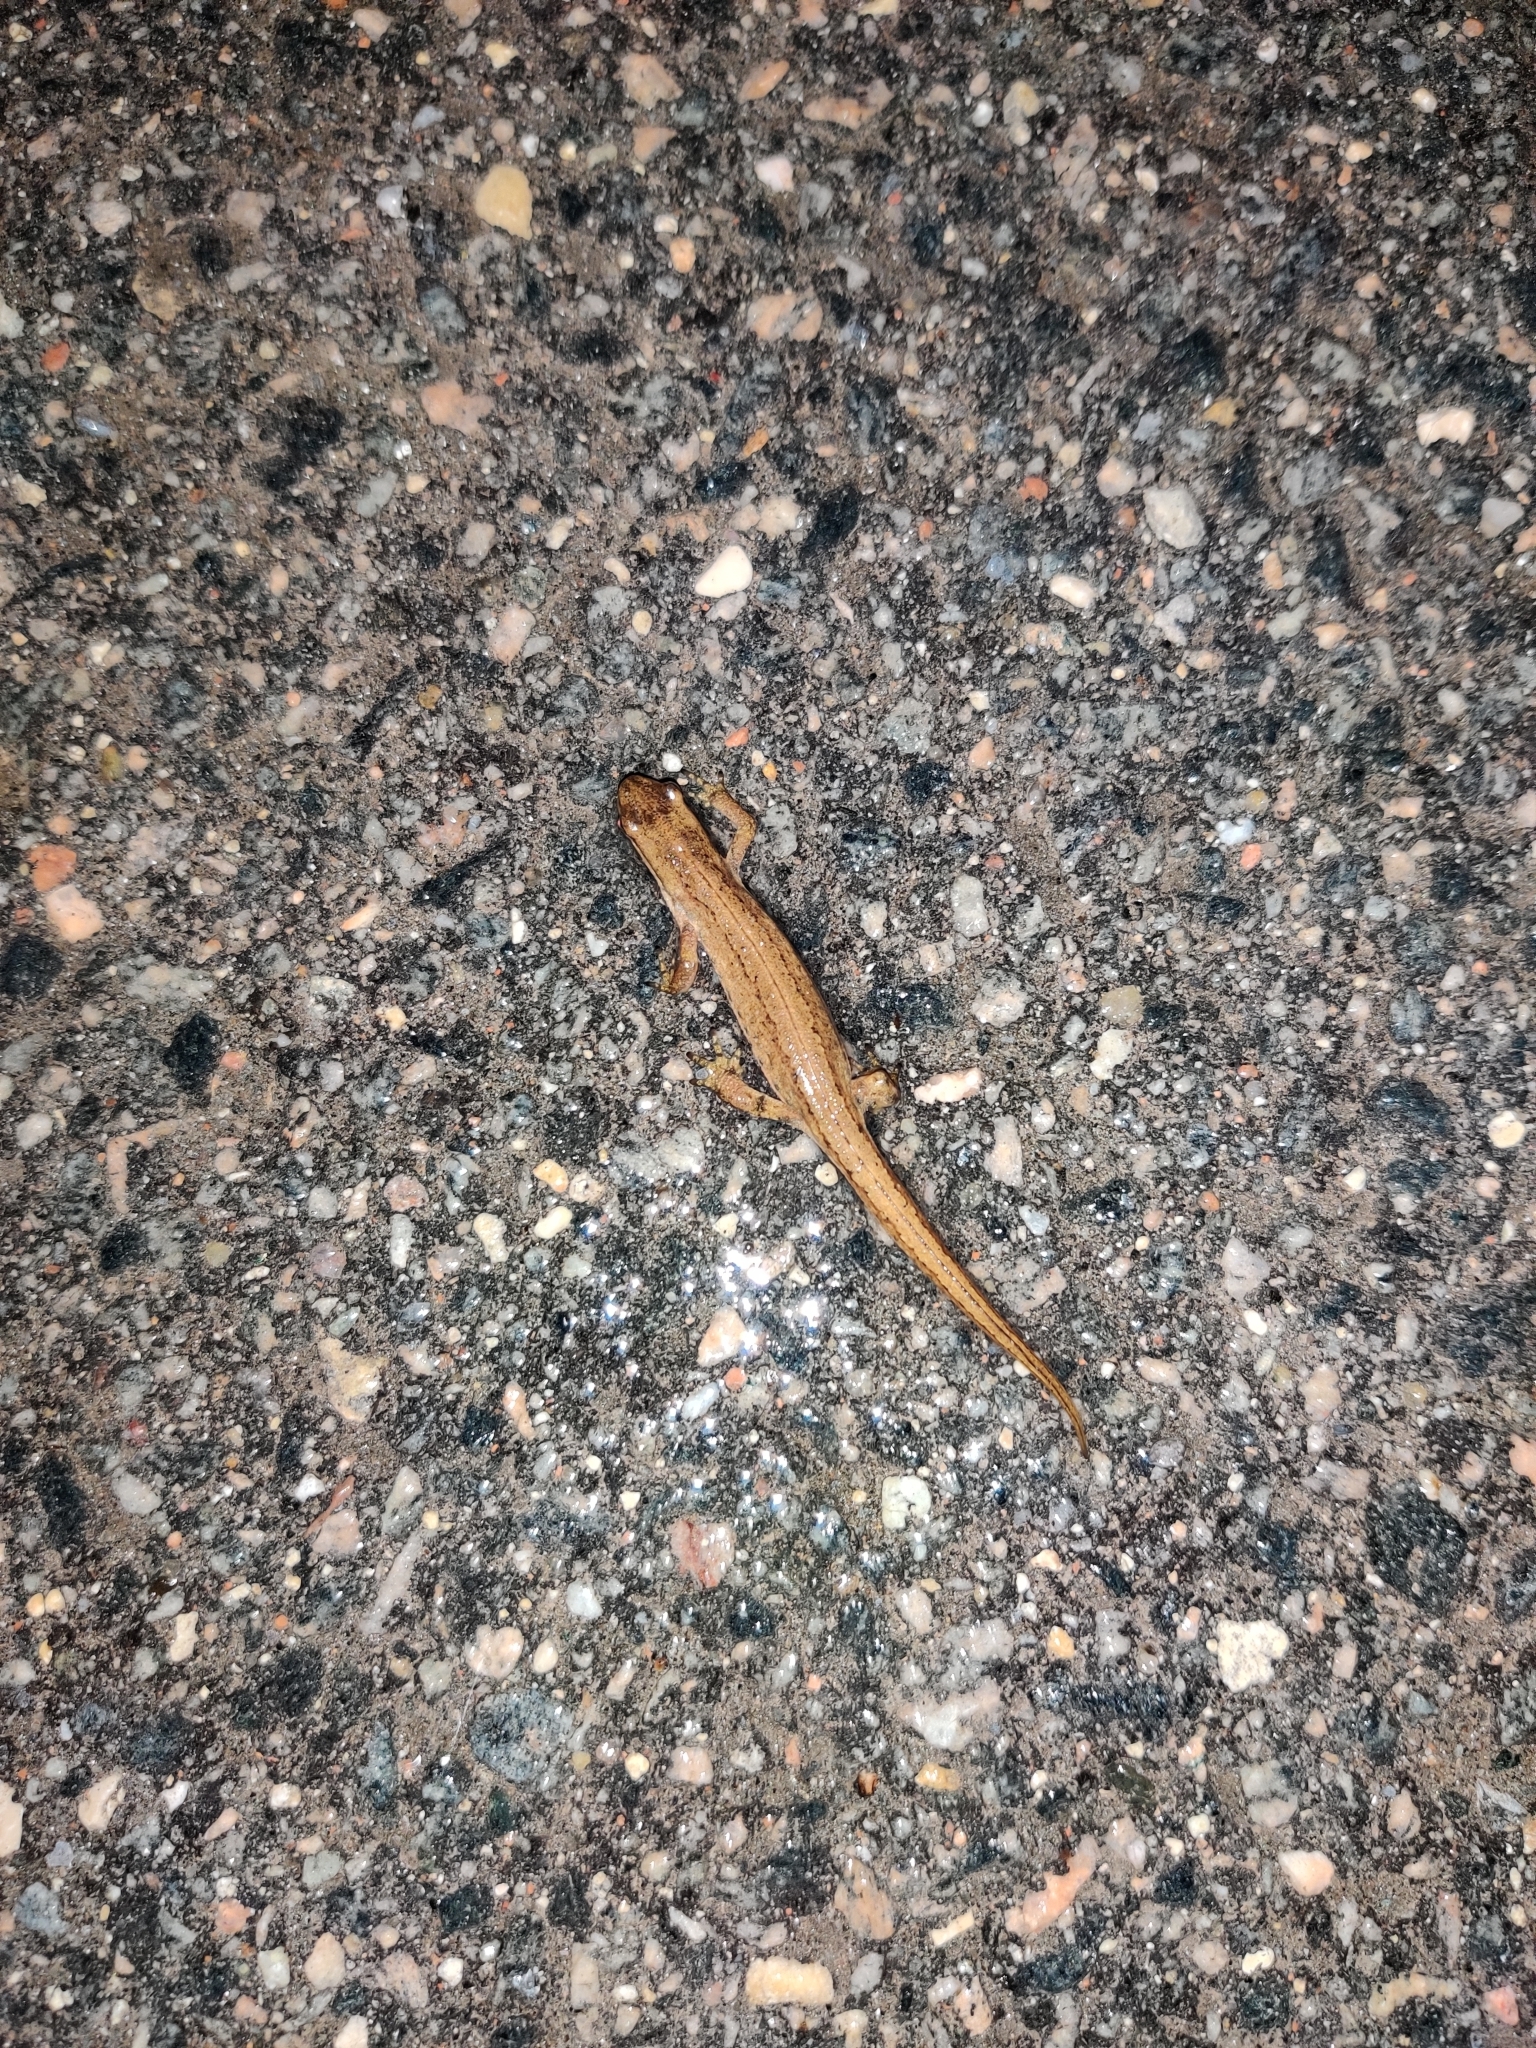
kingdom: Animalia
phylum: Chordata
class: Amphibia
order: Caudata
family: Salamandridae
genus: Lissotriton
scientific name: Lissotriton vulgaris
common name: Smooth newt
